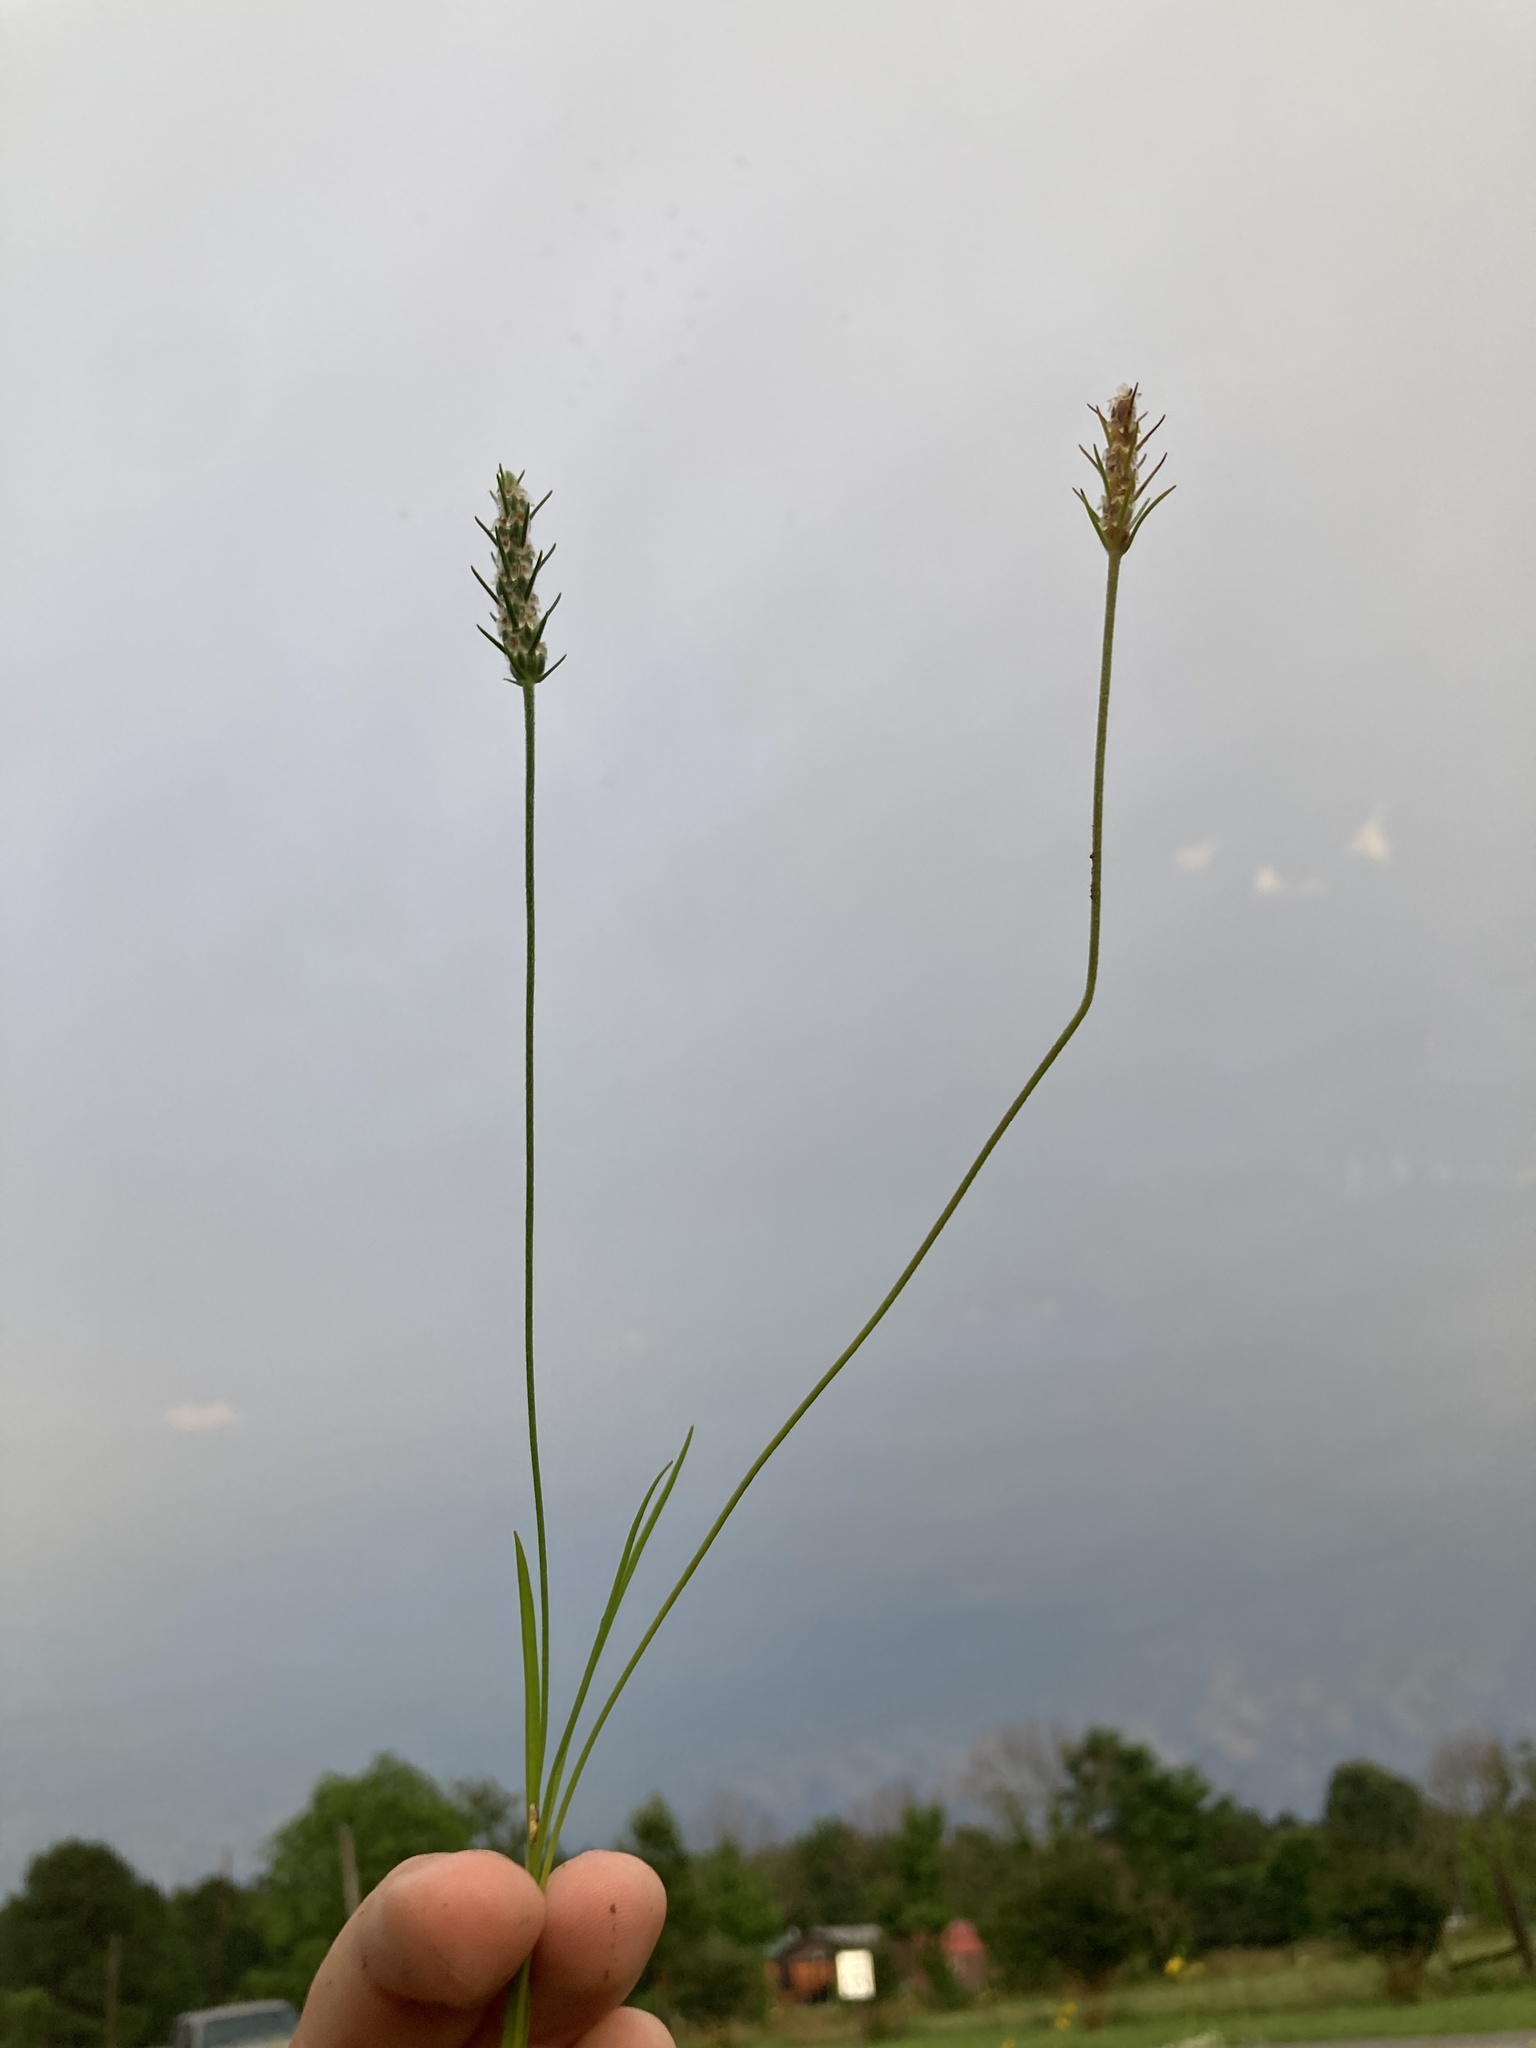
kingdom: Plantae
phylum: Tracheophyta
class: Magnoliopsida
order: Lamiales
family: Plantaginaceae
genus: Plantago
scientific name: Plantago aristata
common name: Bracted plantain
